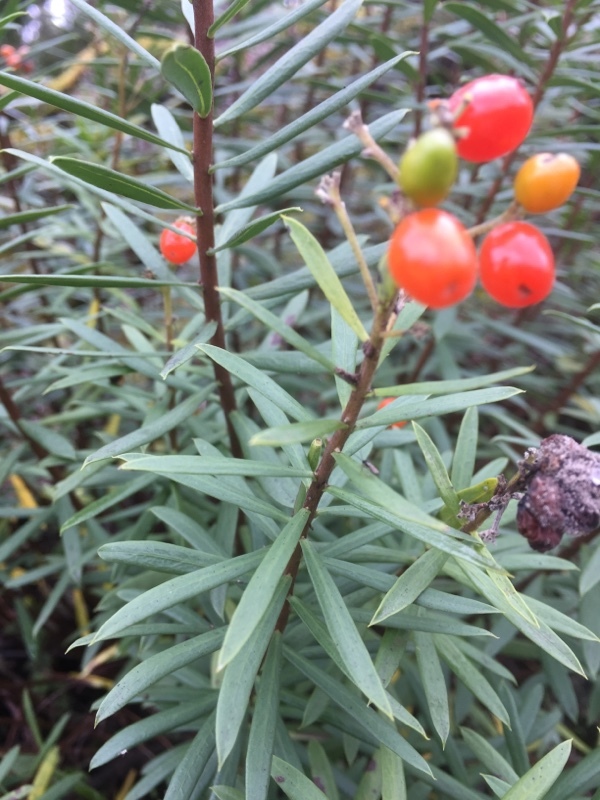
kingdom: Plantae
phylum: Tracheophyta
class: Magnoliopsida
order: Malvales
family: Thymelaeaceae
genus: Daphne
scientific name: Daphne gnidium
